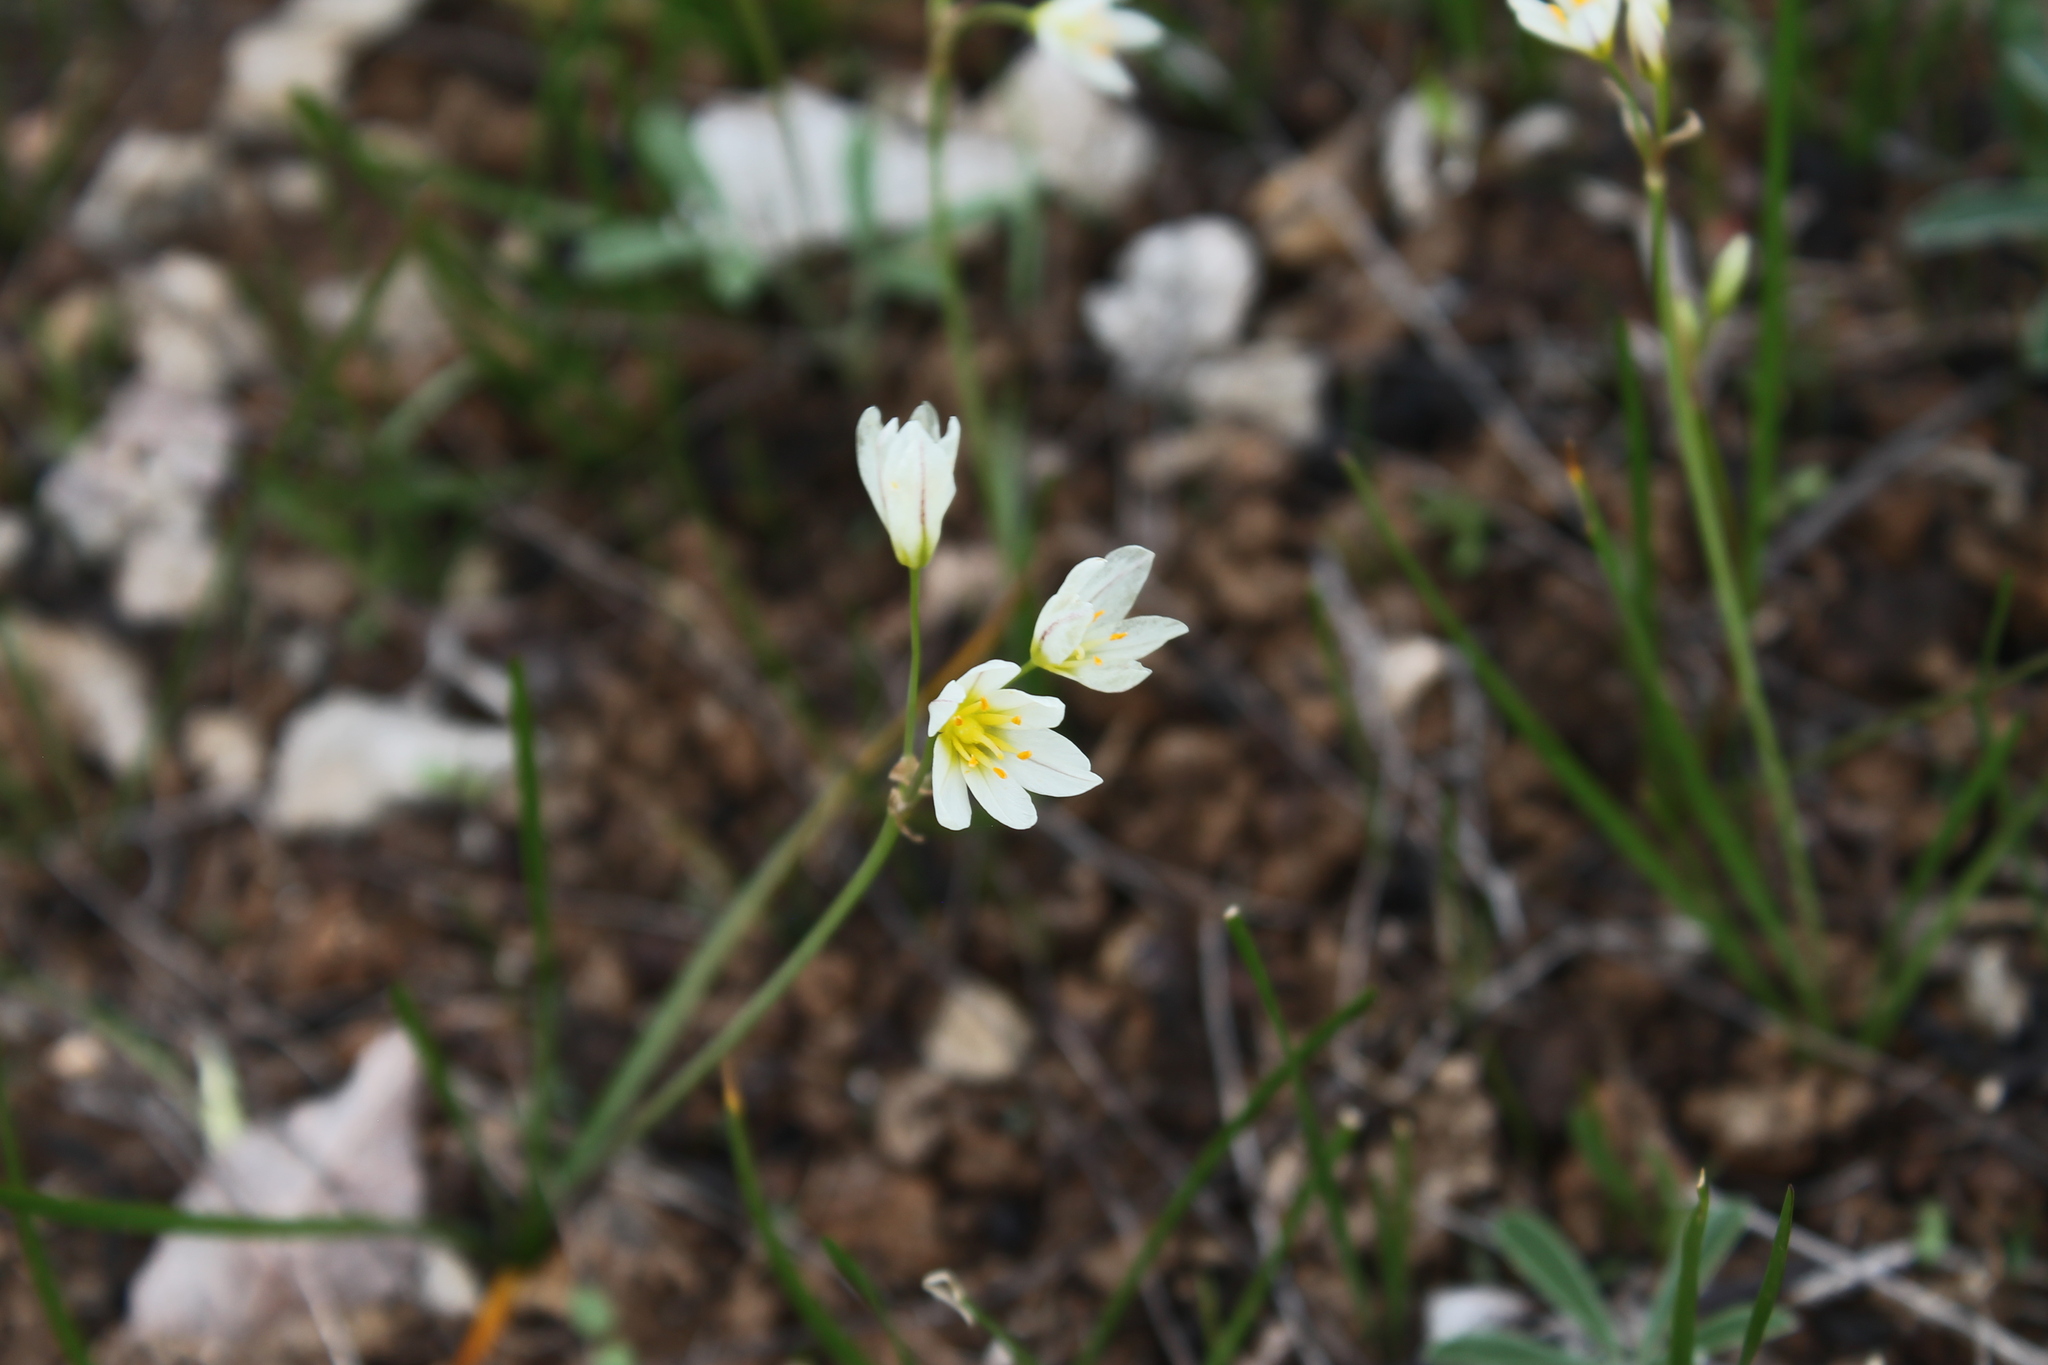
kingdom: Plantae
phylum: Tracheophyta
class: Liliopsida
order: Asparagales
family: Amaryllidaceae
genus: Nothoscordum
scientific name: Nothoscordum bivalve
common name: Crow-poison
